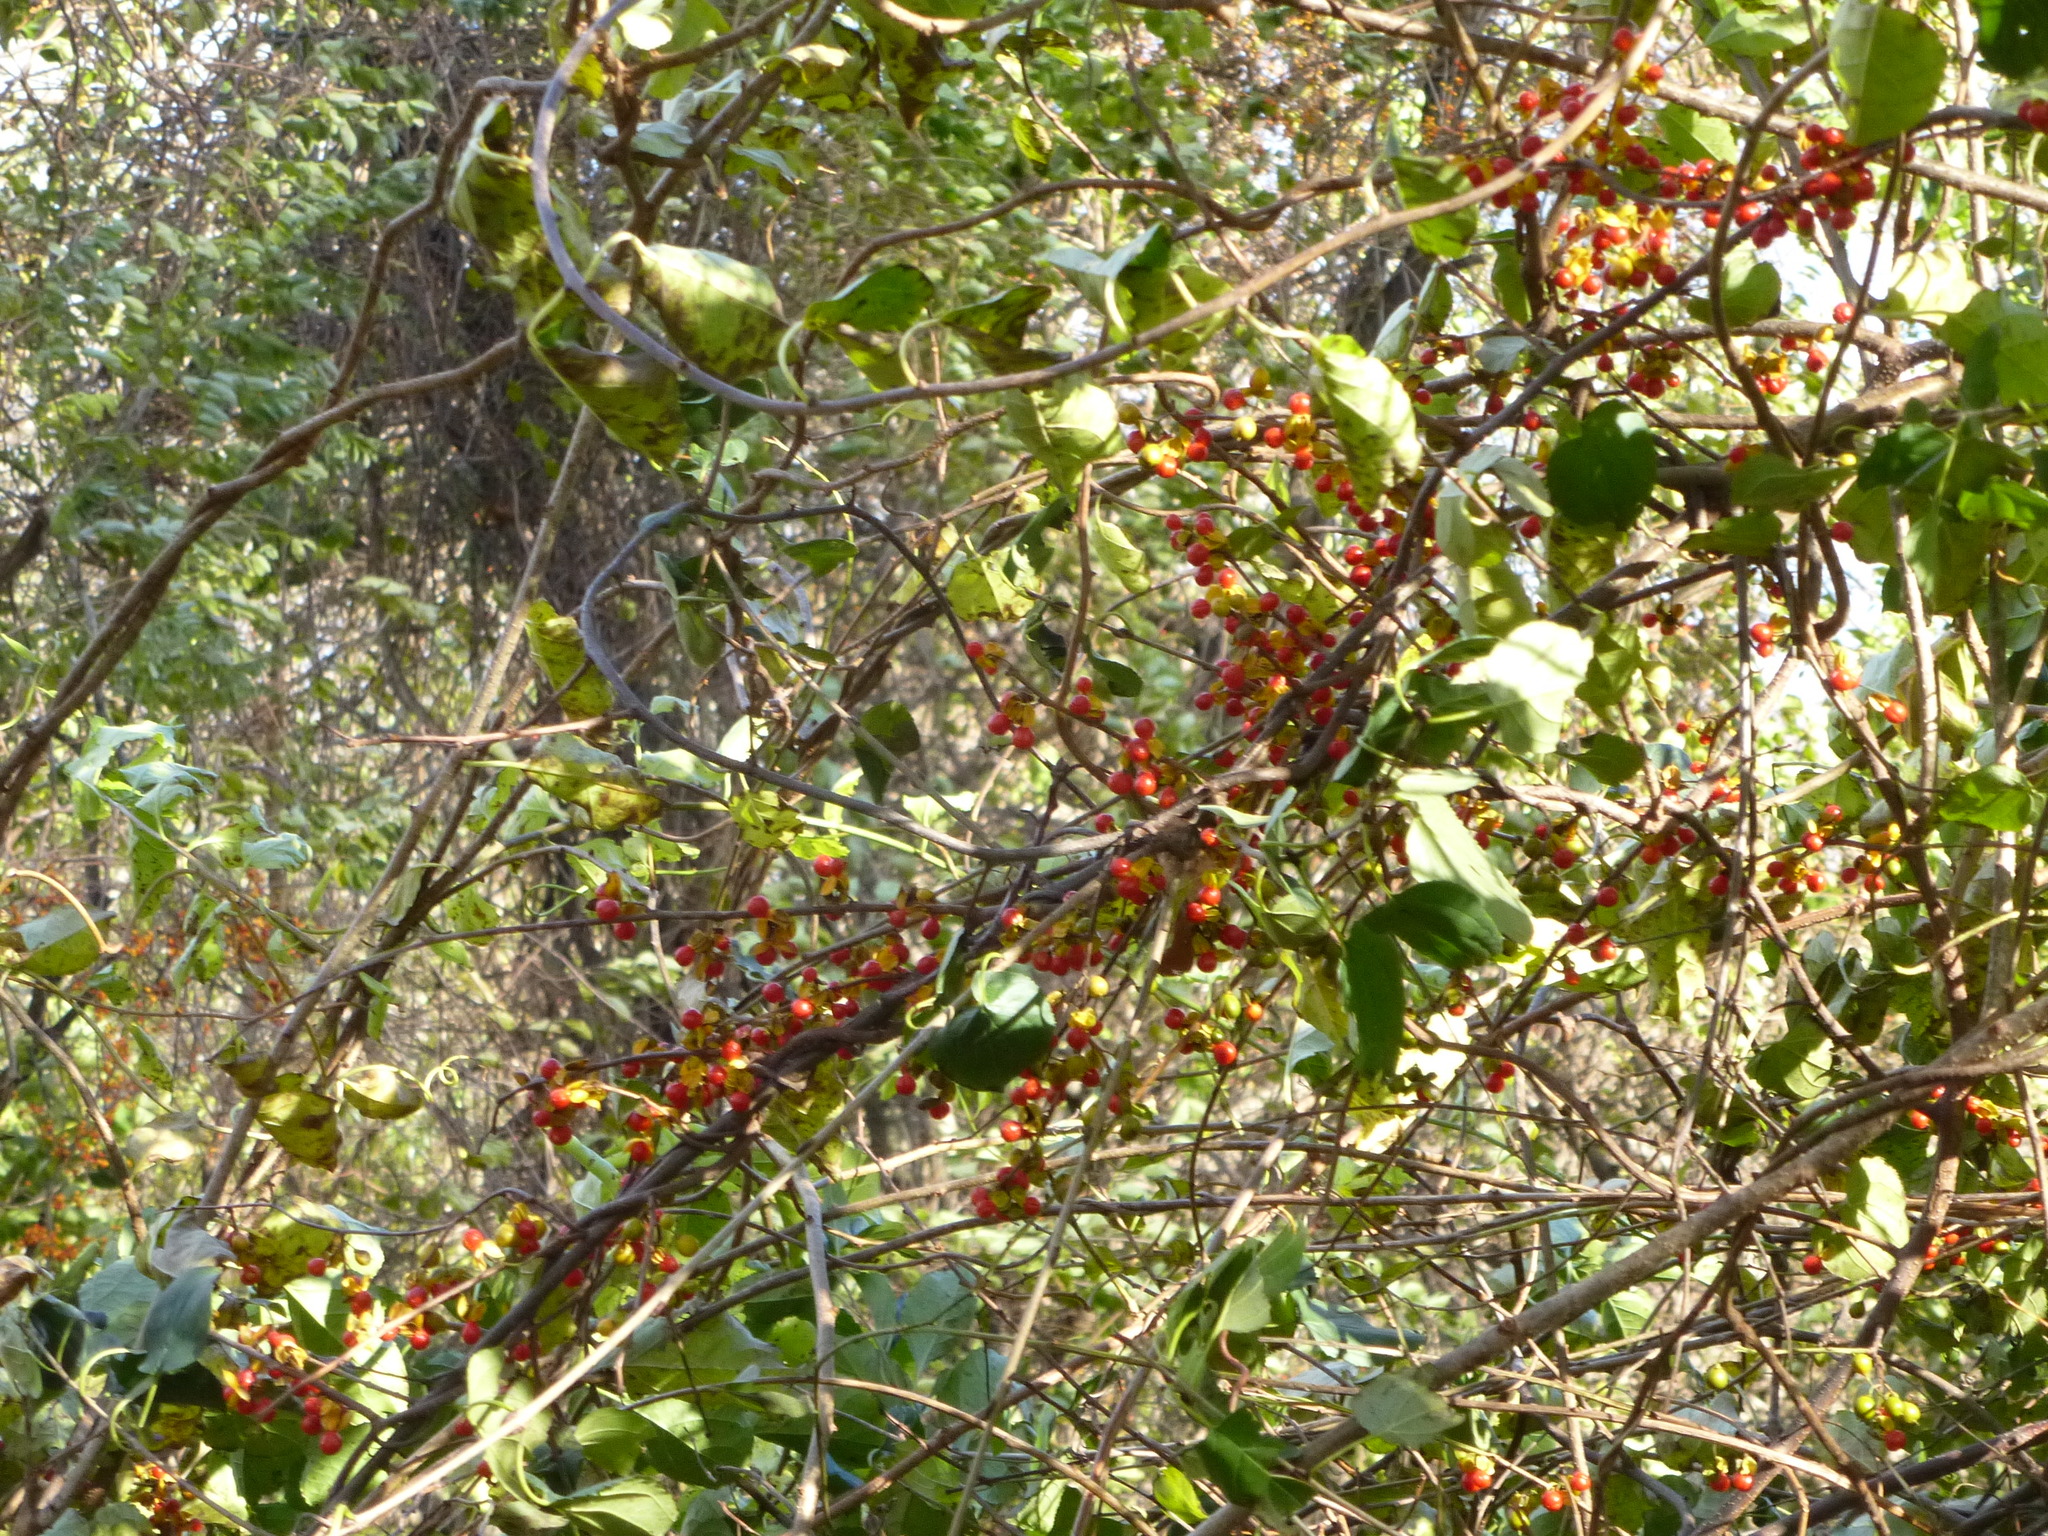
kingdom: Plantae
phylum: Tracheophyta
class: Magnoliopsida
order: Celastrales
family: Celastraceae
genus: Celastrus
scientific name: Celastrus orbiculatus
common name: Oriental bittersweet
